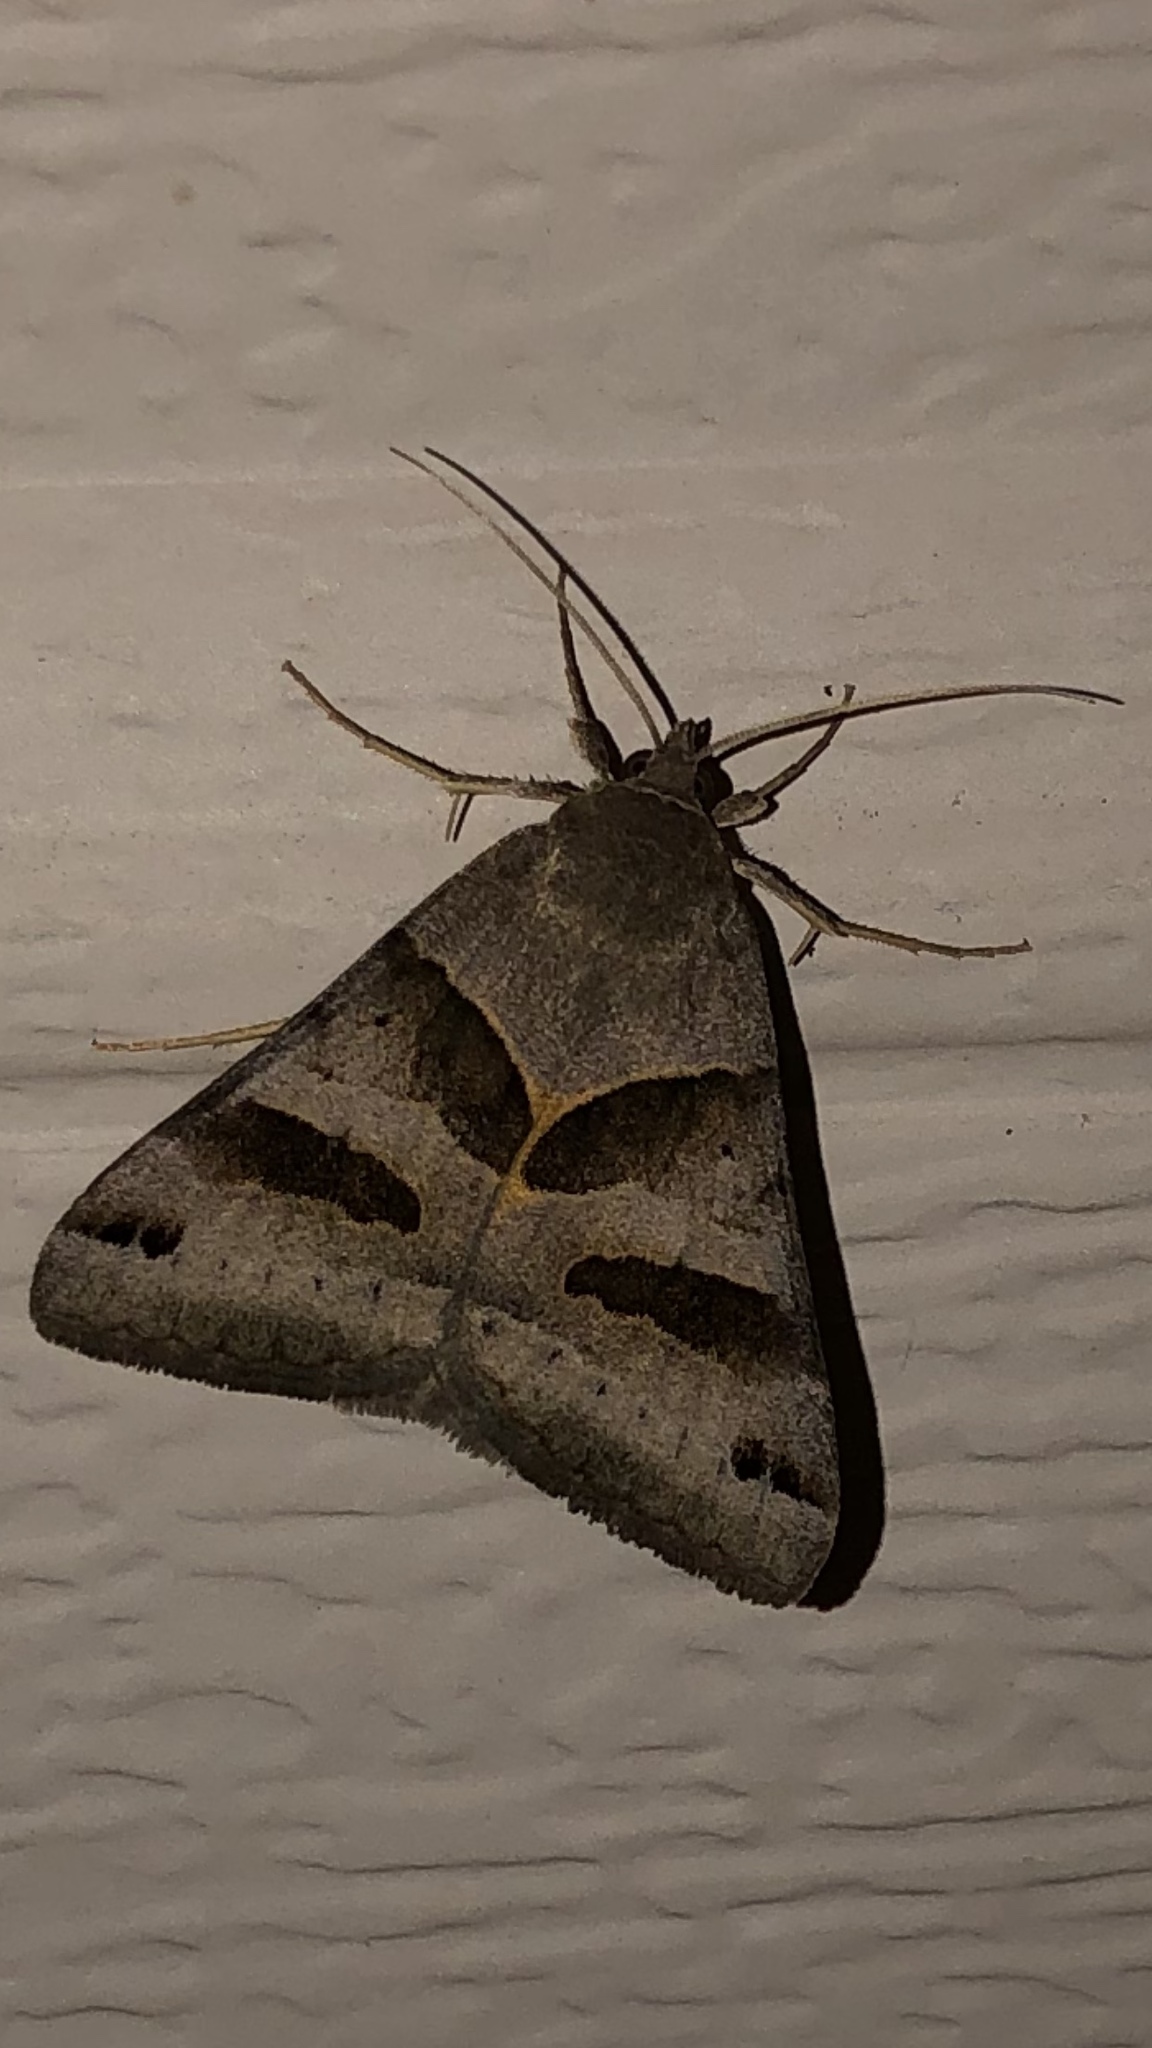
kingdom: Animalia
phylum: Arthropoda
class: Insecta
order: Lepidoptera
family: Erebidae
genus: Caenurgina
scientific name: Caenurgina erechtea
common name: Forage looper moth
